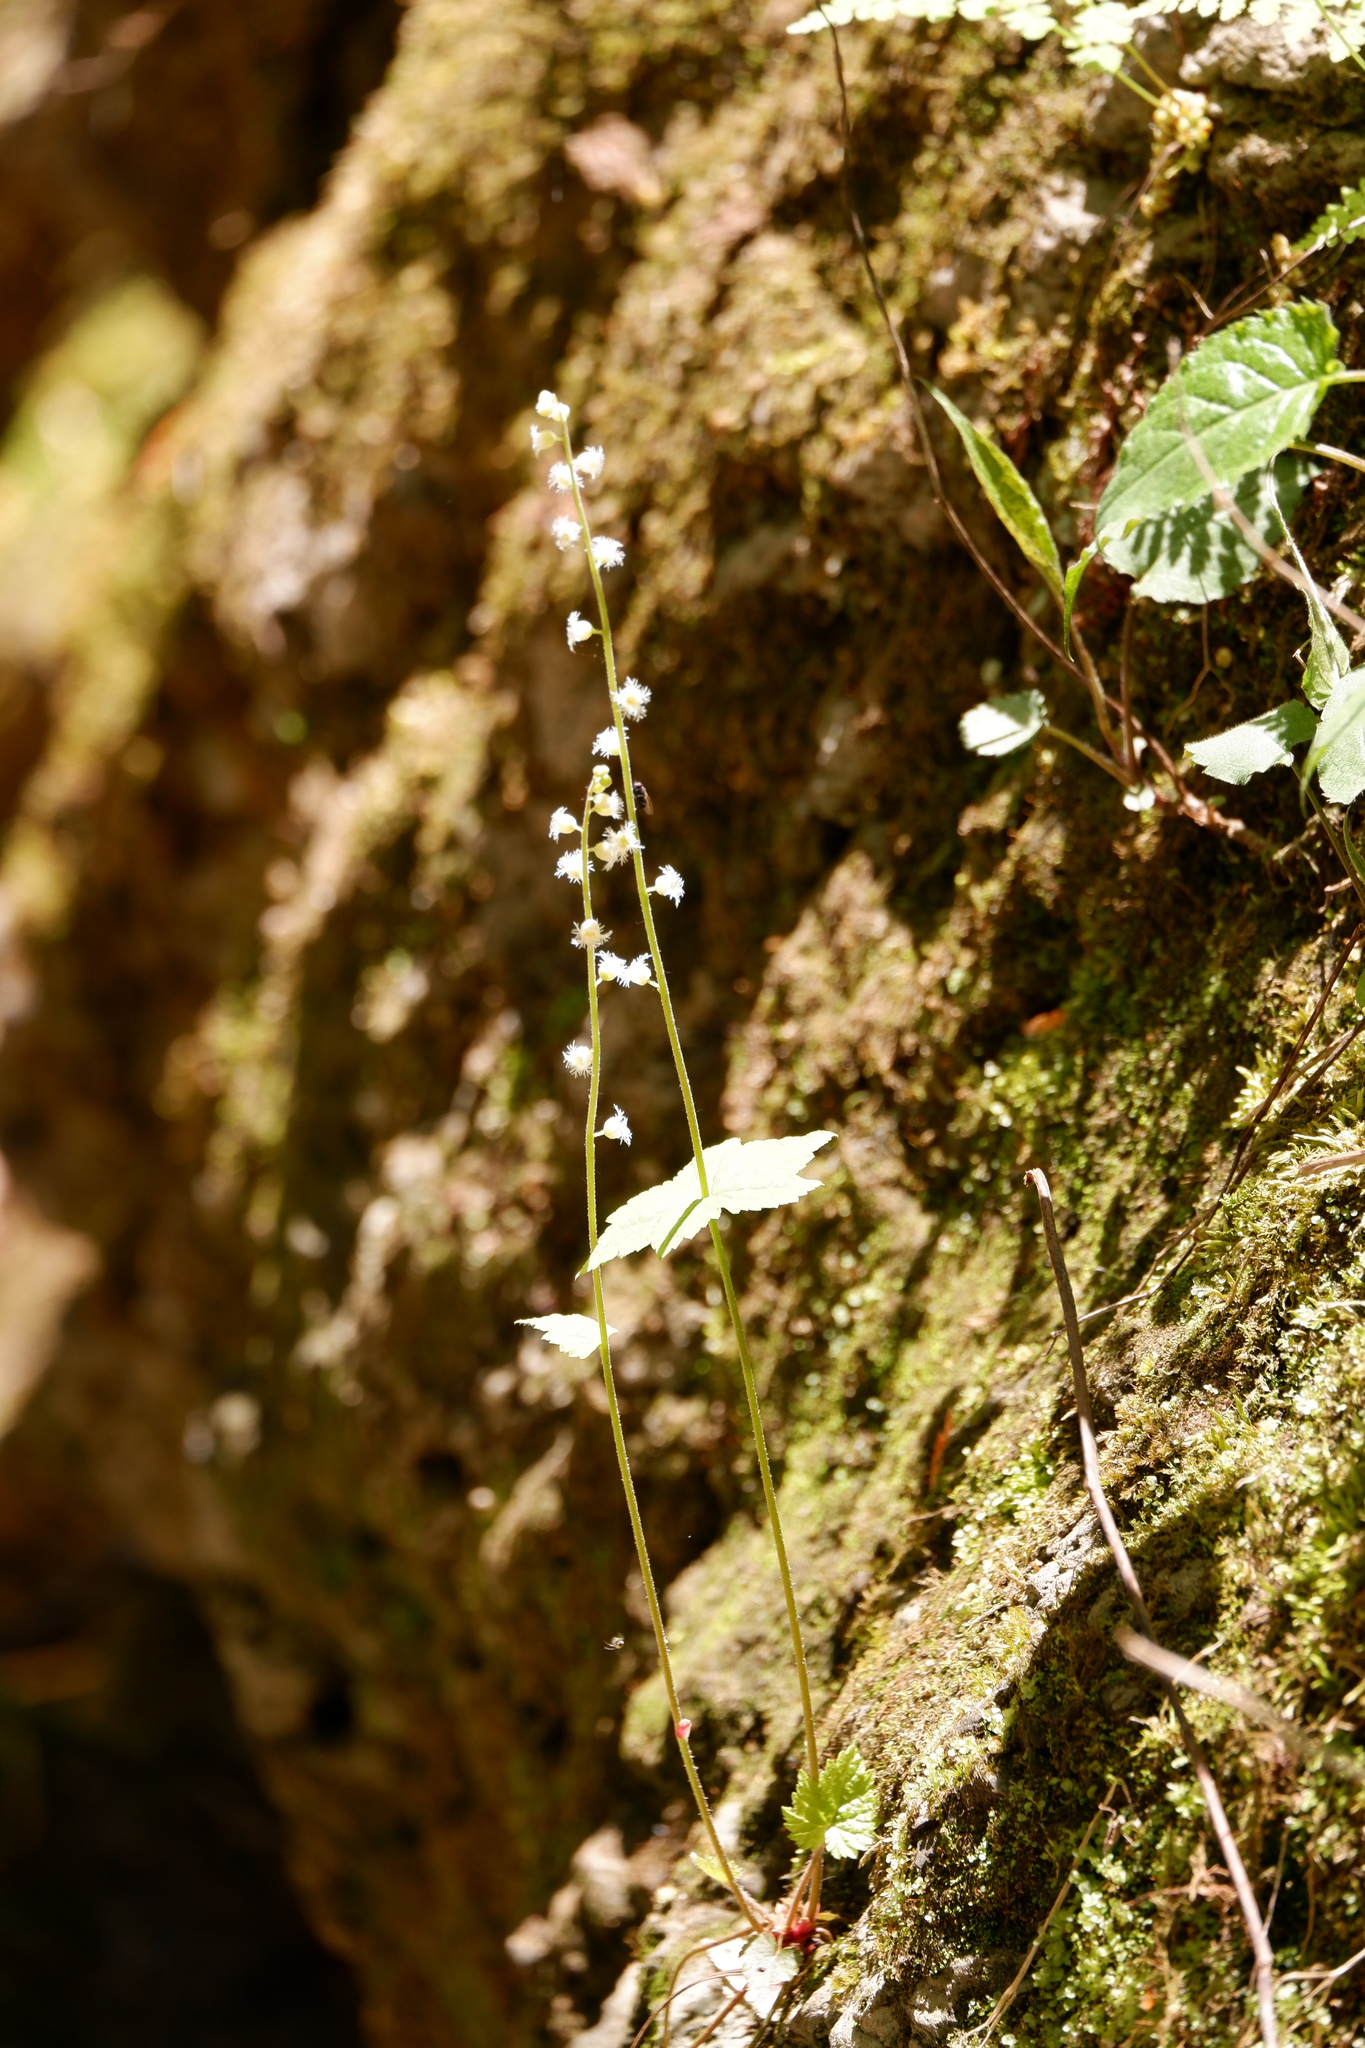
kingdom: Plantae
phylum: Tracheophyta
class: Magnoliopsida
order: Saxifragales
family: Saxifragaceae
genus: Mitella
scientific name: Mitella diphylla
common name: Coolwort
